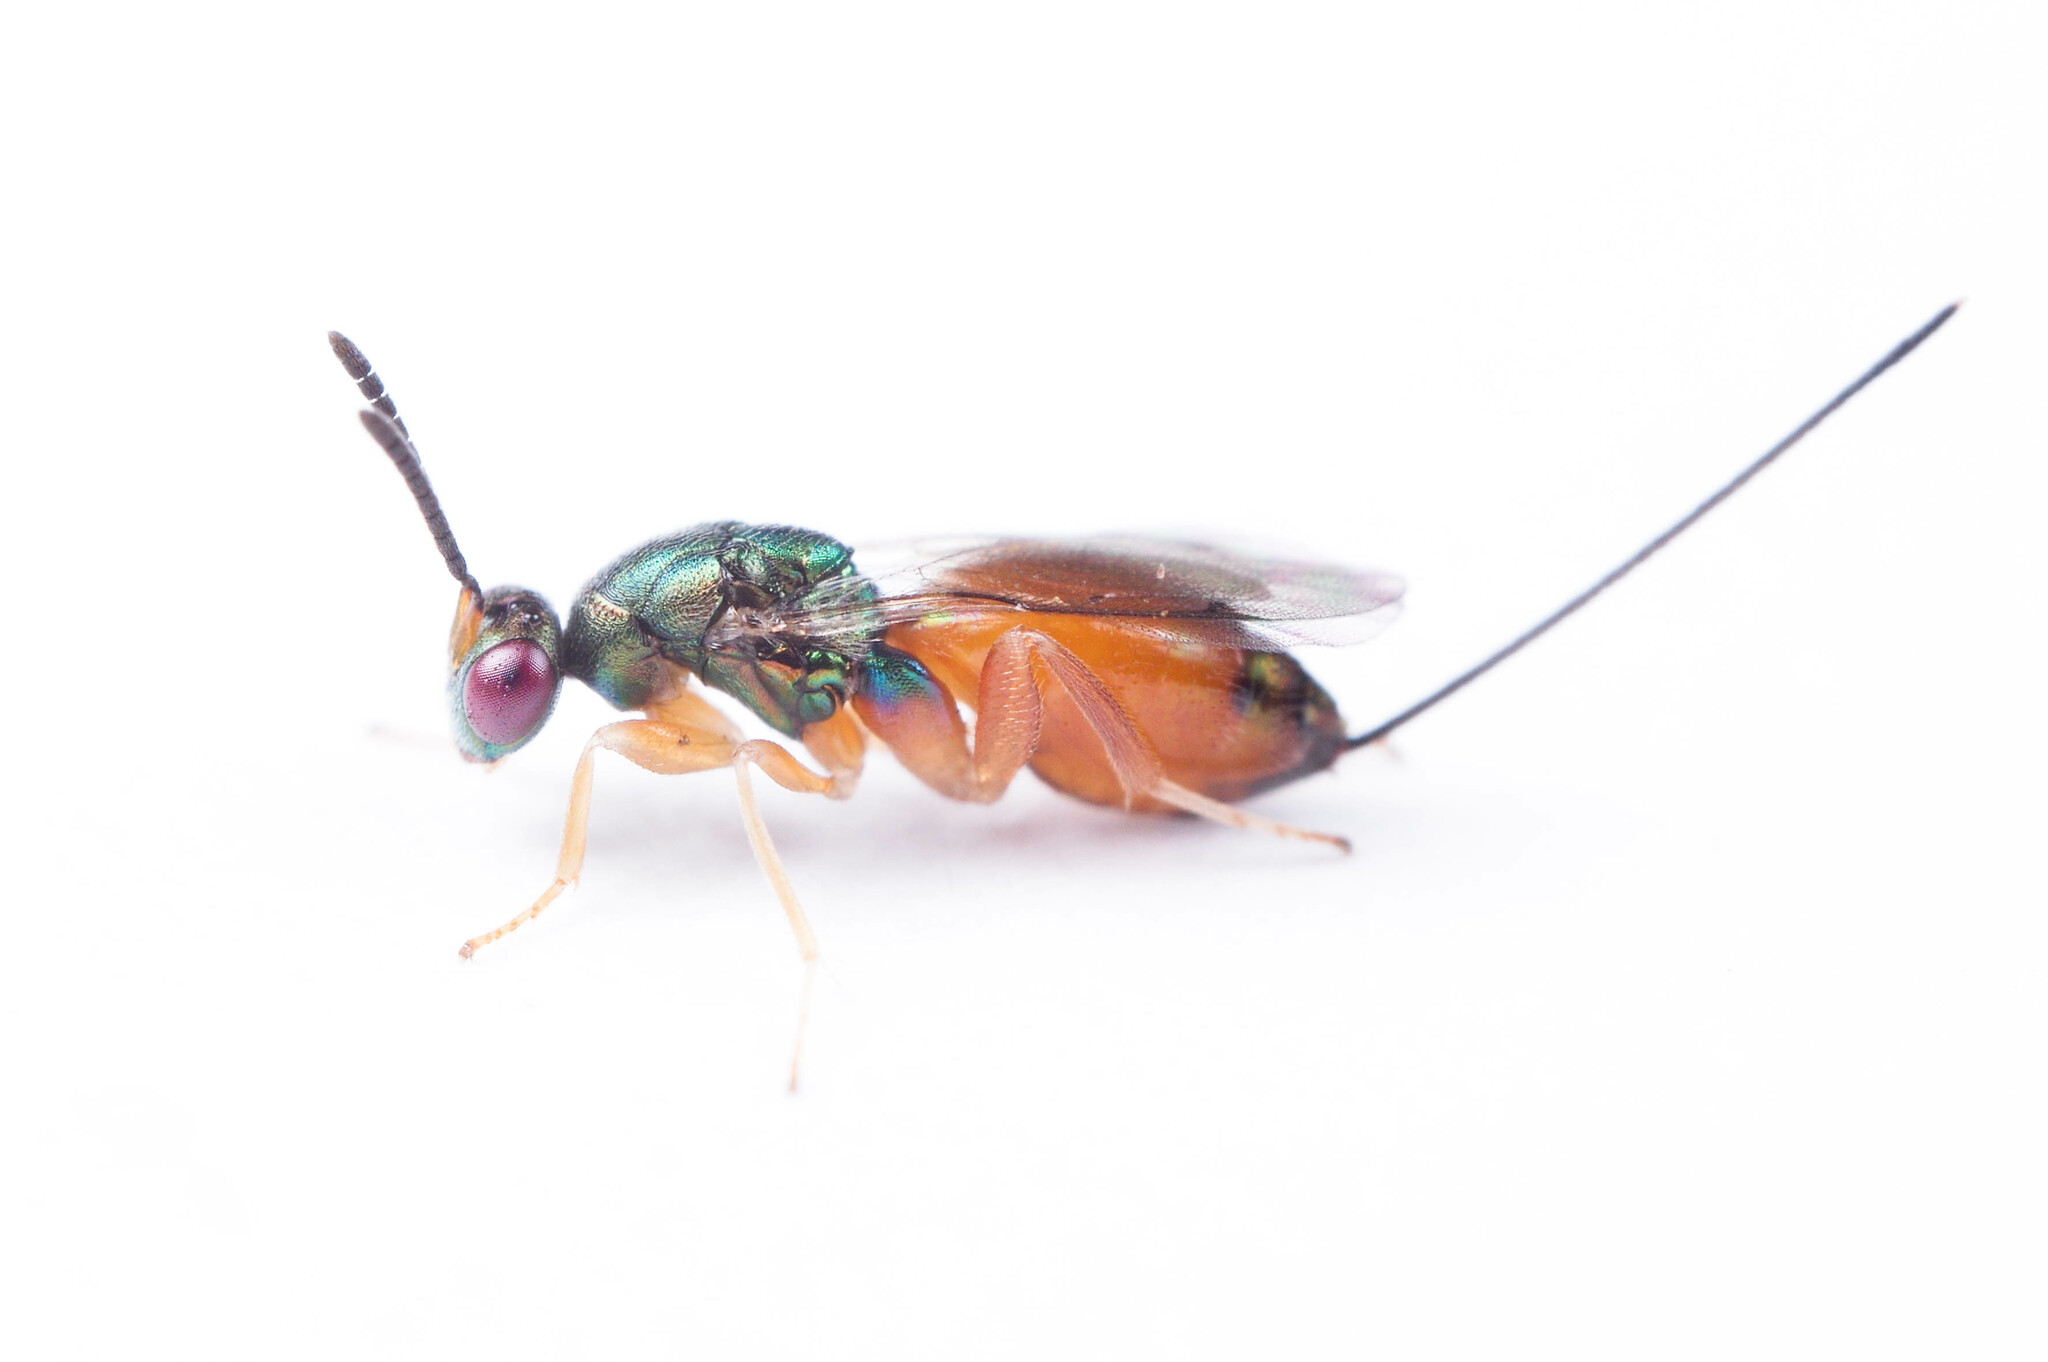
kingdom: Animalia
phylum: Arthropoda
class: Insecta
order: Hymenoptera
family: Torymidae
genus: Torymus
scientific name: Torymus flavicoxa
